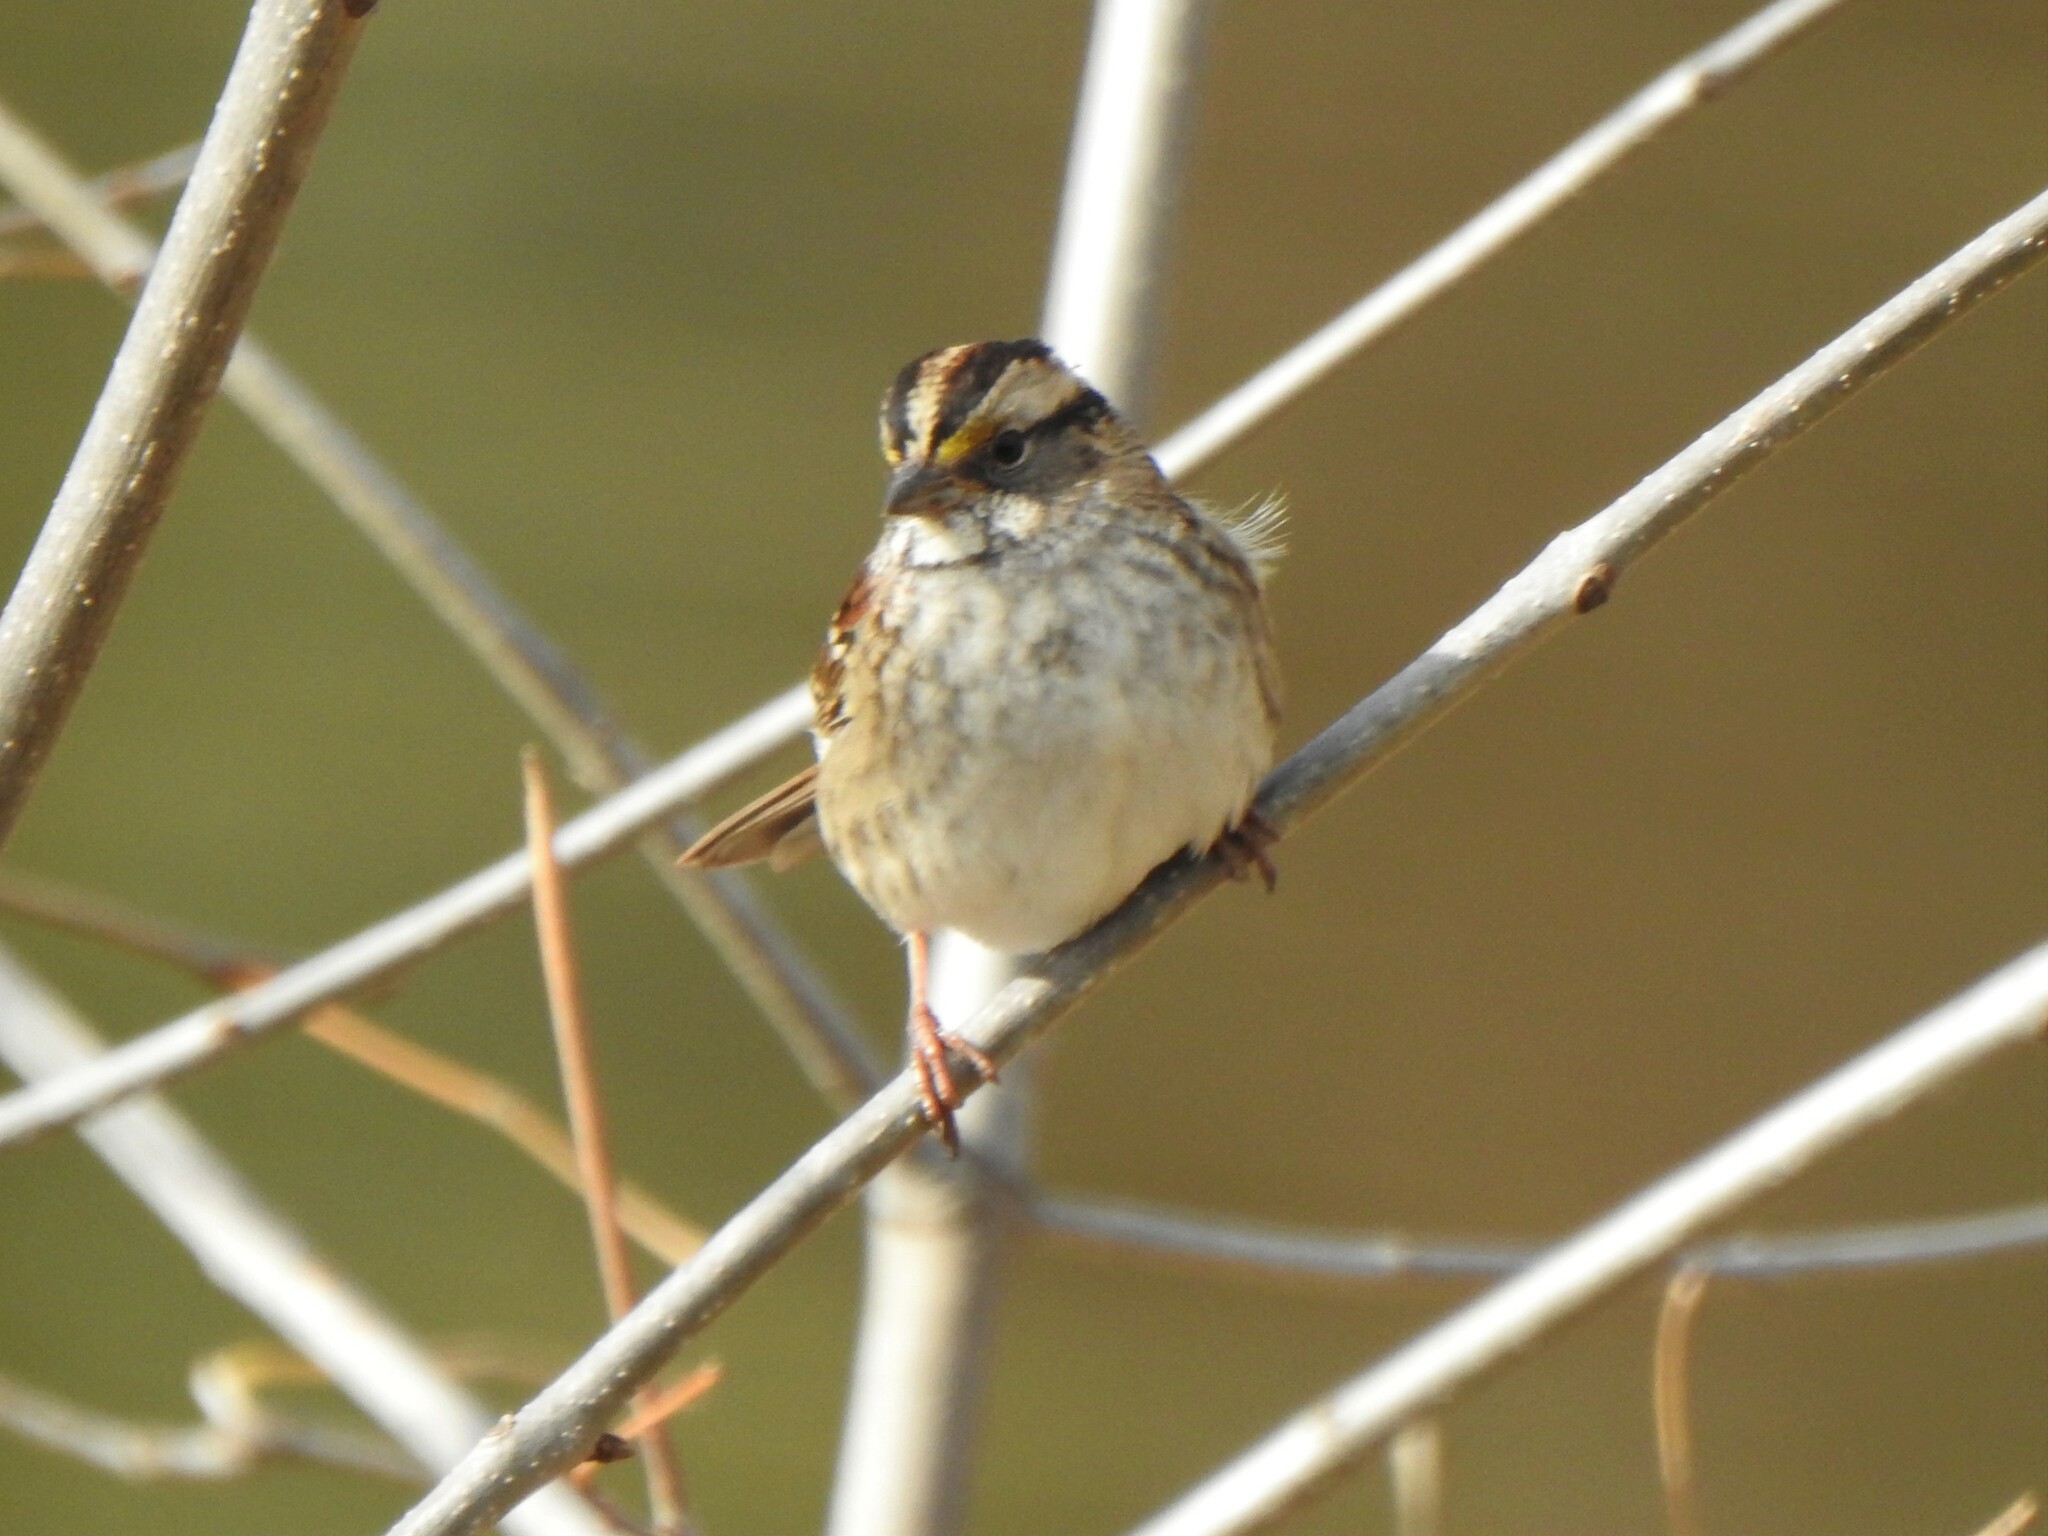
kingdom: Animalia
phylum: Chordata
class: Aves
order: Passeriformes
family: Passerellidae
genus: Zonotrichia
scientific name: Zonotrichia albicollis
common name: White-throated sparrow
